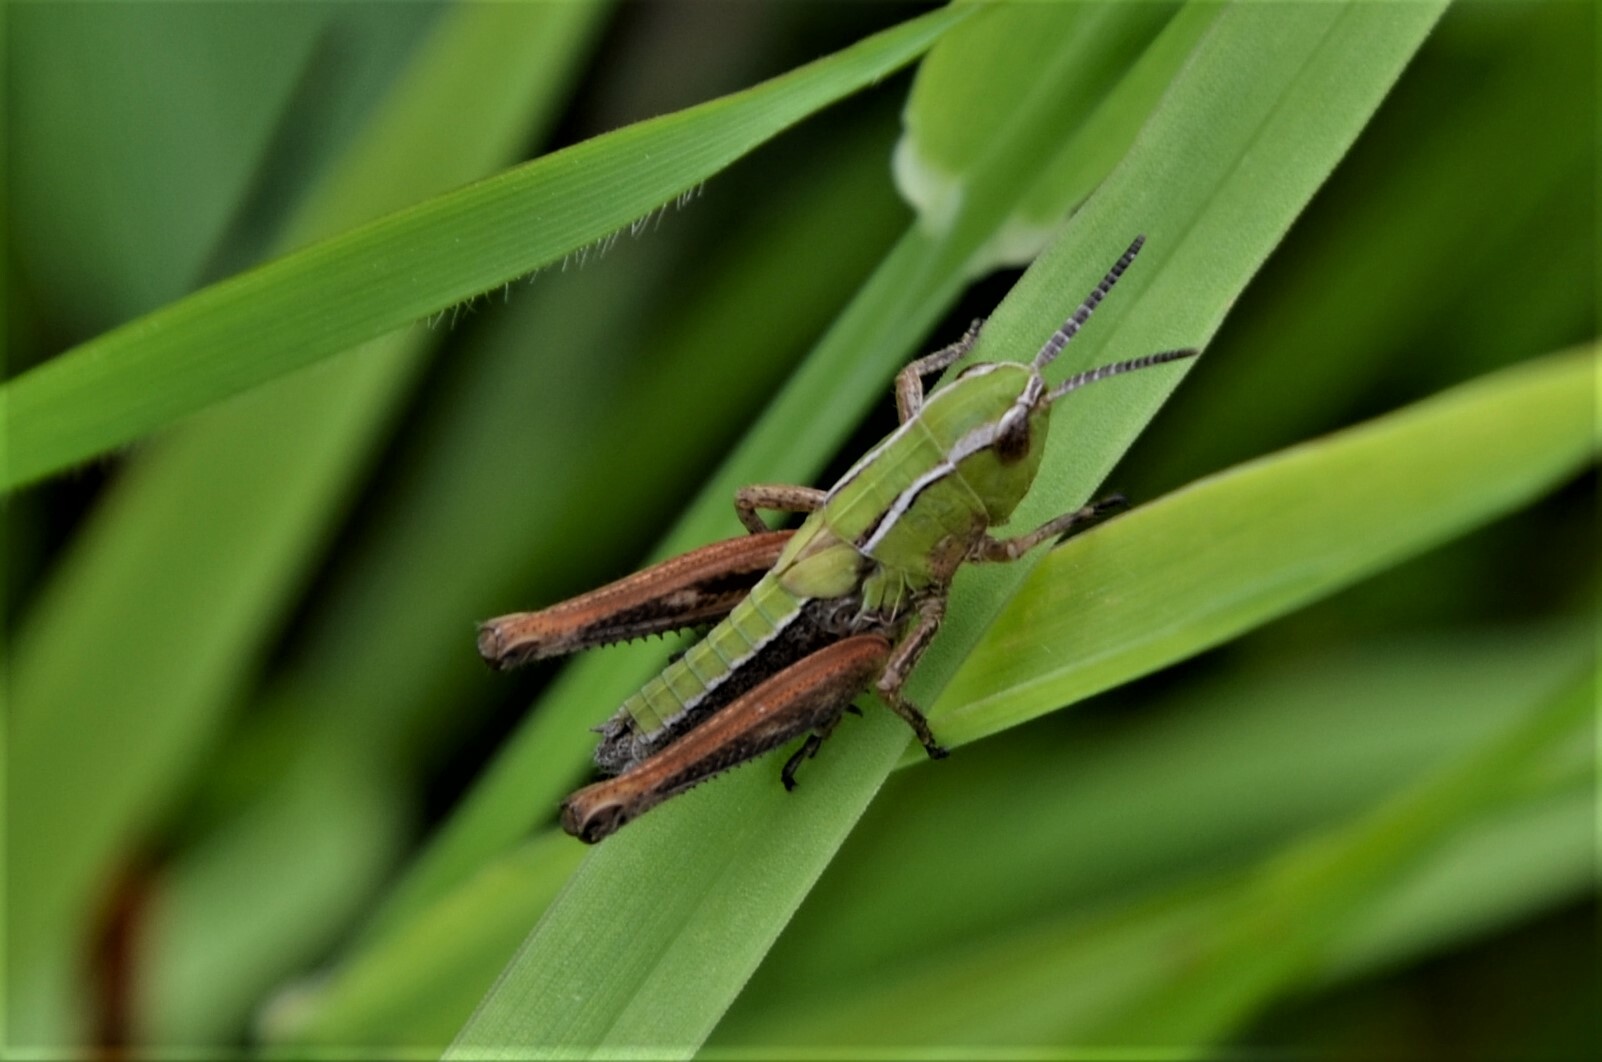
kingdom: Animalia
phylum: Arthropoda
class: Insecta
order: Orthoptera
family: Acrididae
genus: Stenobothrus
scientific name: Stenobothrus lineatus
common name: Stripe-winged grasshopper
